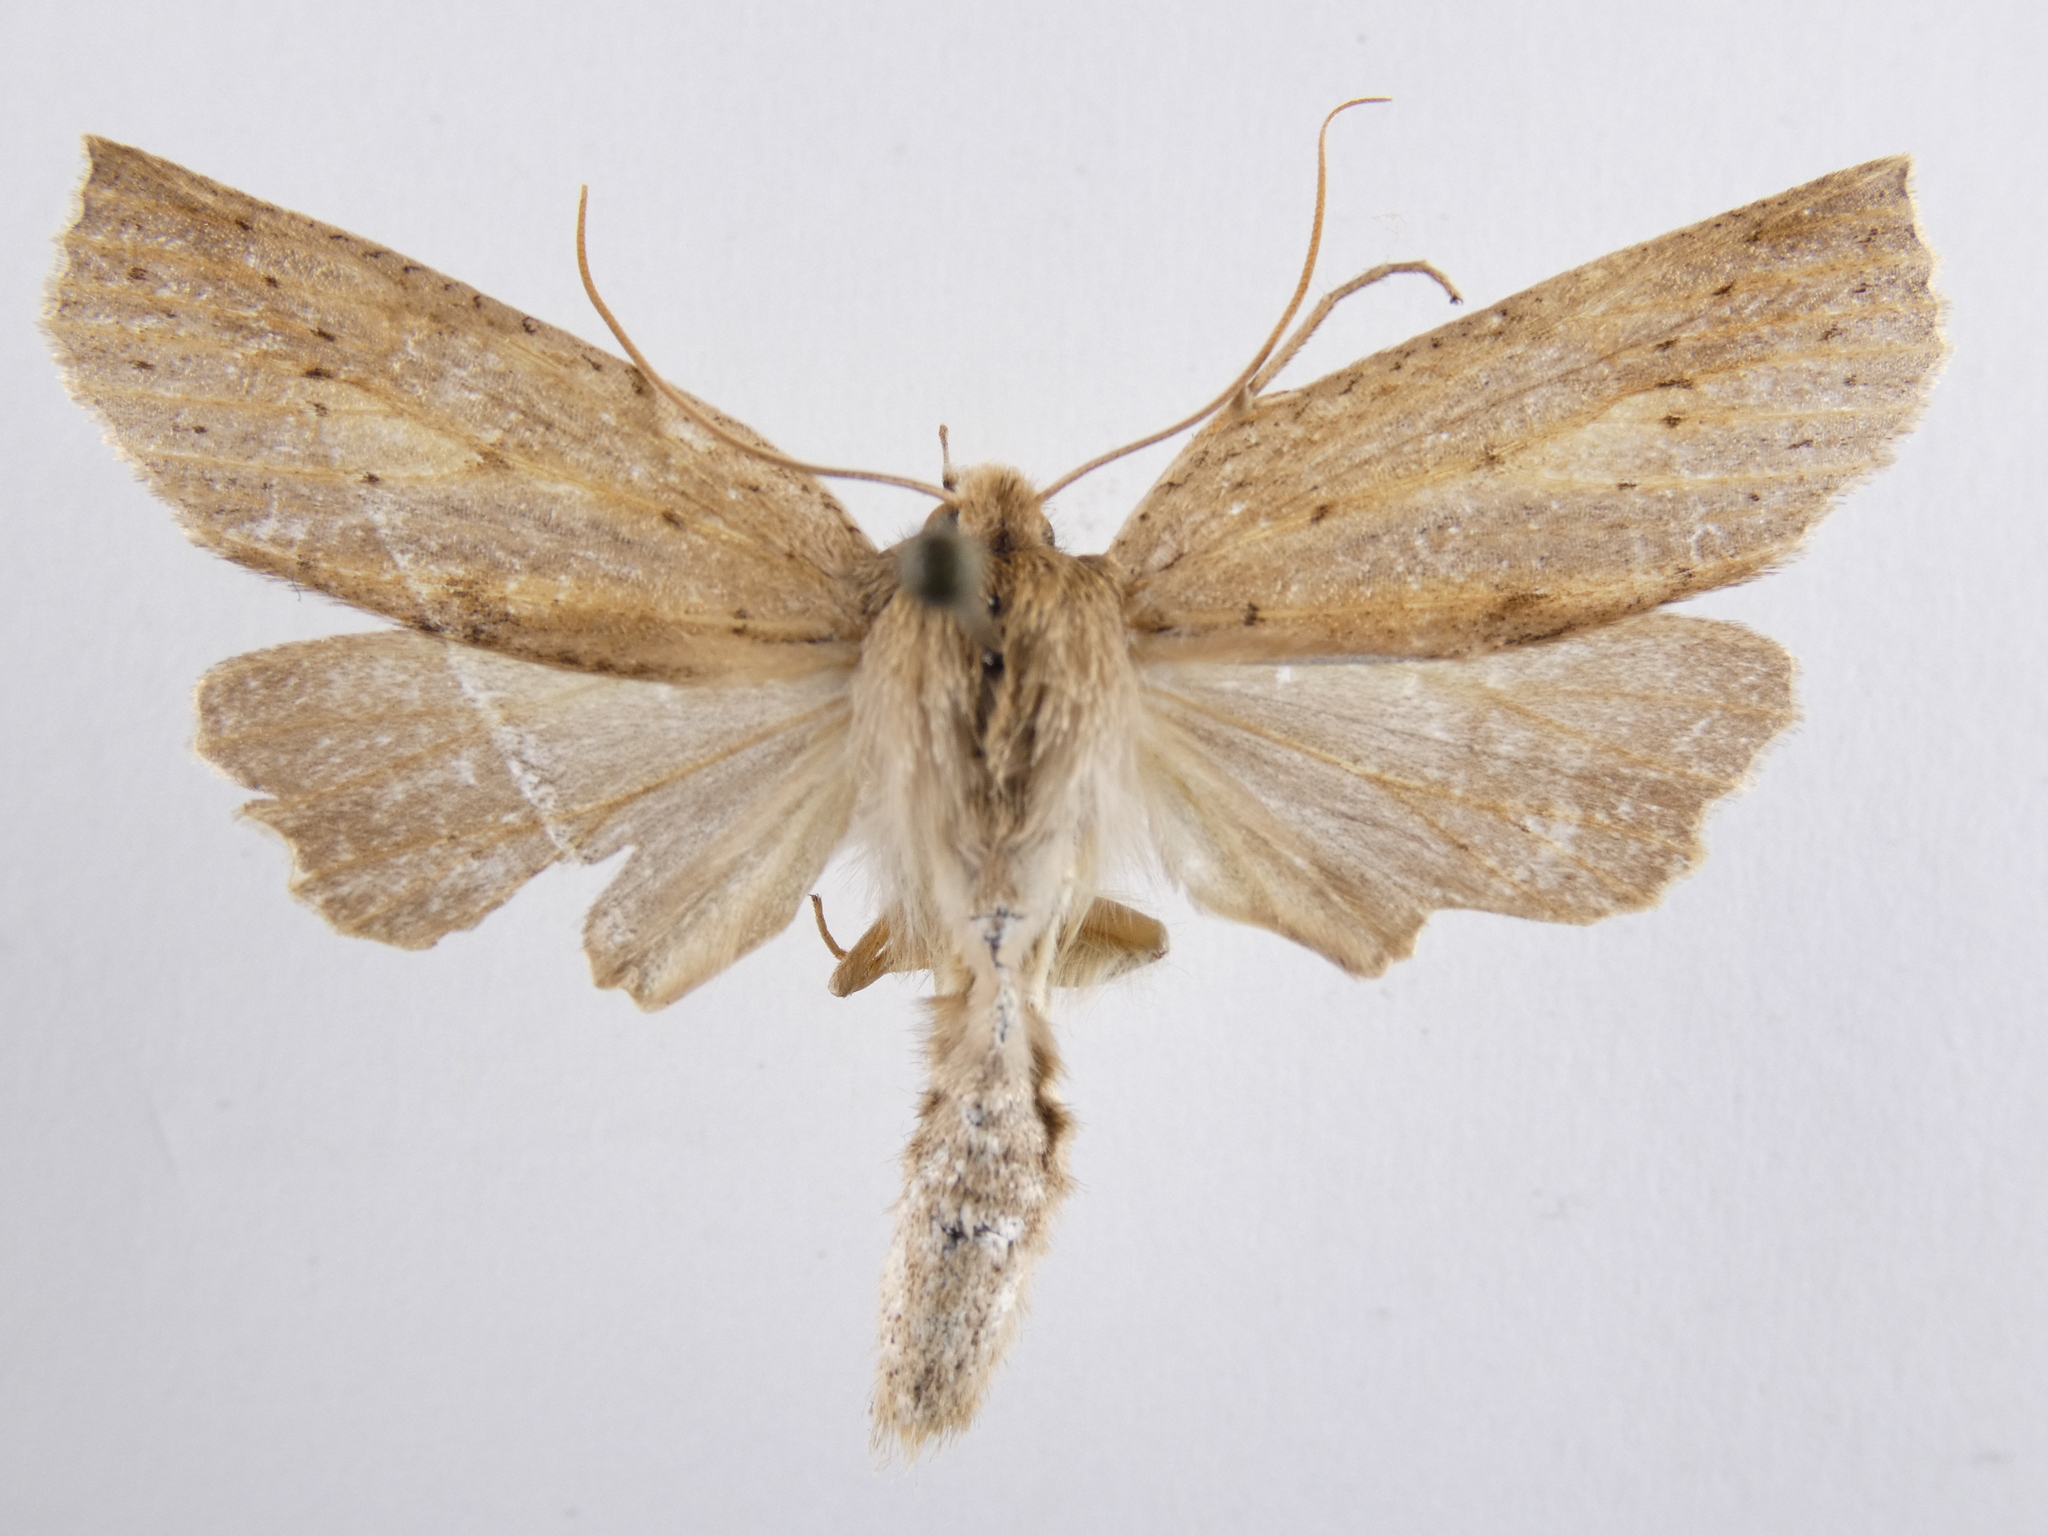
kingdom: Animalia
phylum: Arthropoda
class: Insecta
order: Lepidoptera
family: Geometridae
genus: Declana
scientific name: Declana leptomera
